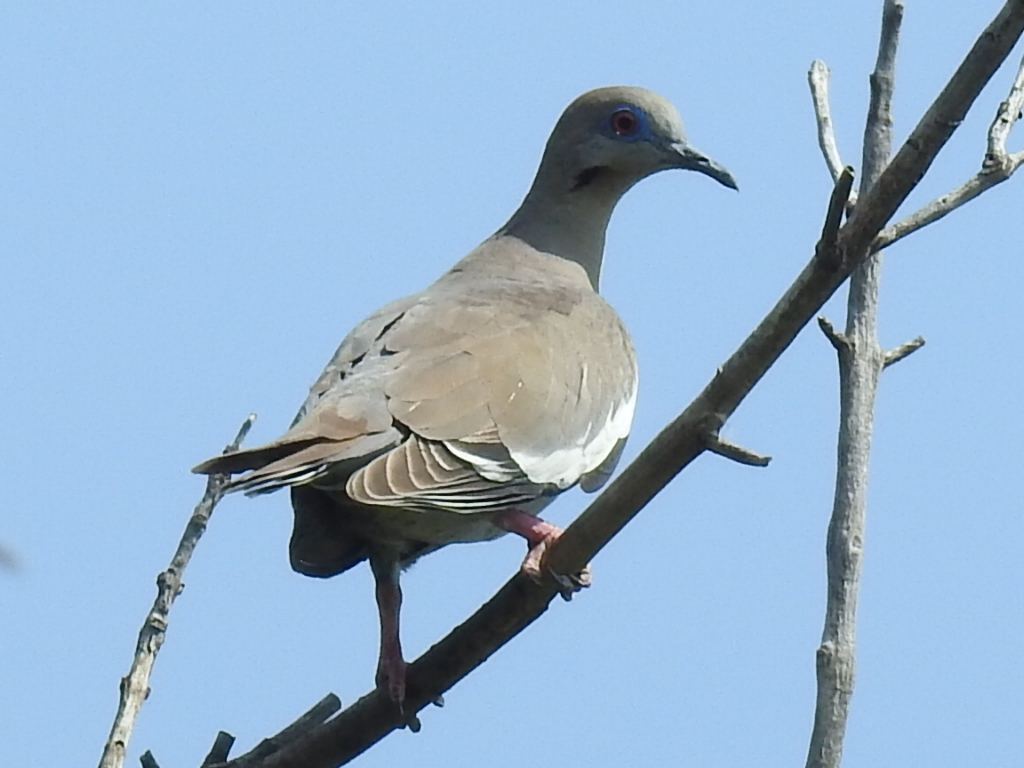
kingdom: Animalia
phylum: Chordata
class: Aves
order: Columbiformes
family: Columbidae
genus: Zenaida
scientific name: Zenaida asiatica
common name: White-winged dove
